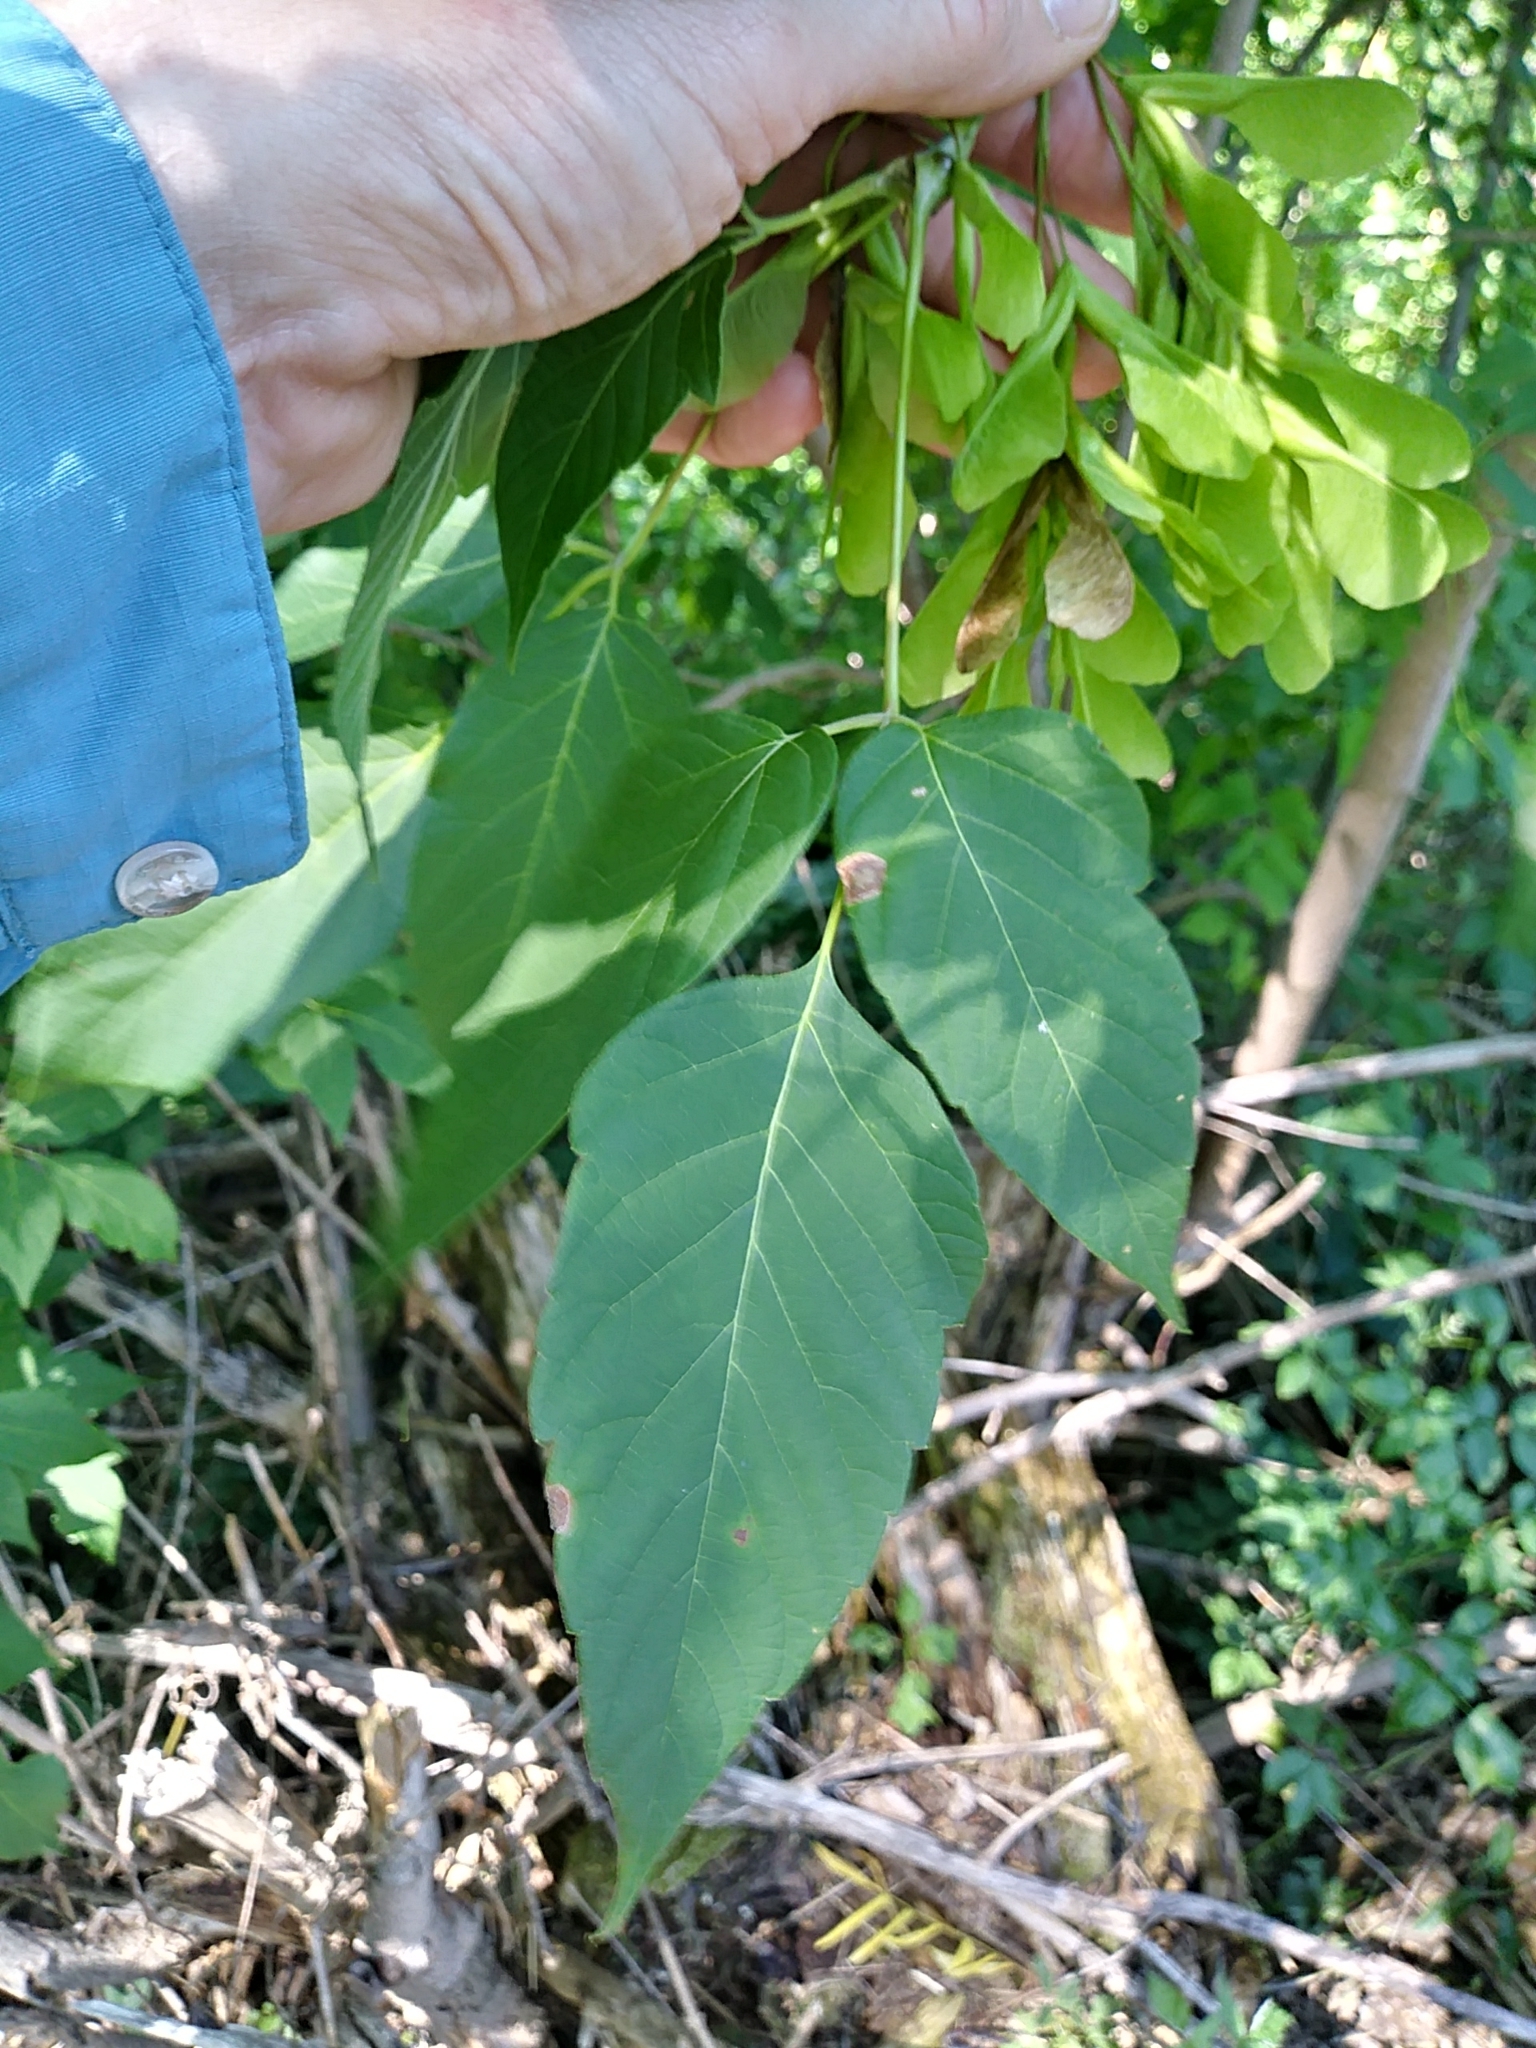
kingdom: Plantae
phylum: Tracheophyta
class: Magnoliopsida
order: Sapindales
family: Sapindaceae
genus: Acer
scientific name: Acer negundo
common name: Ashleaf maple
